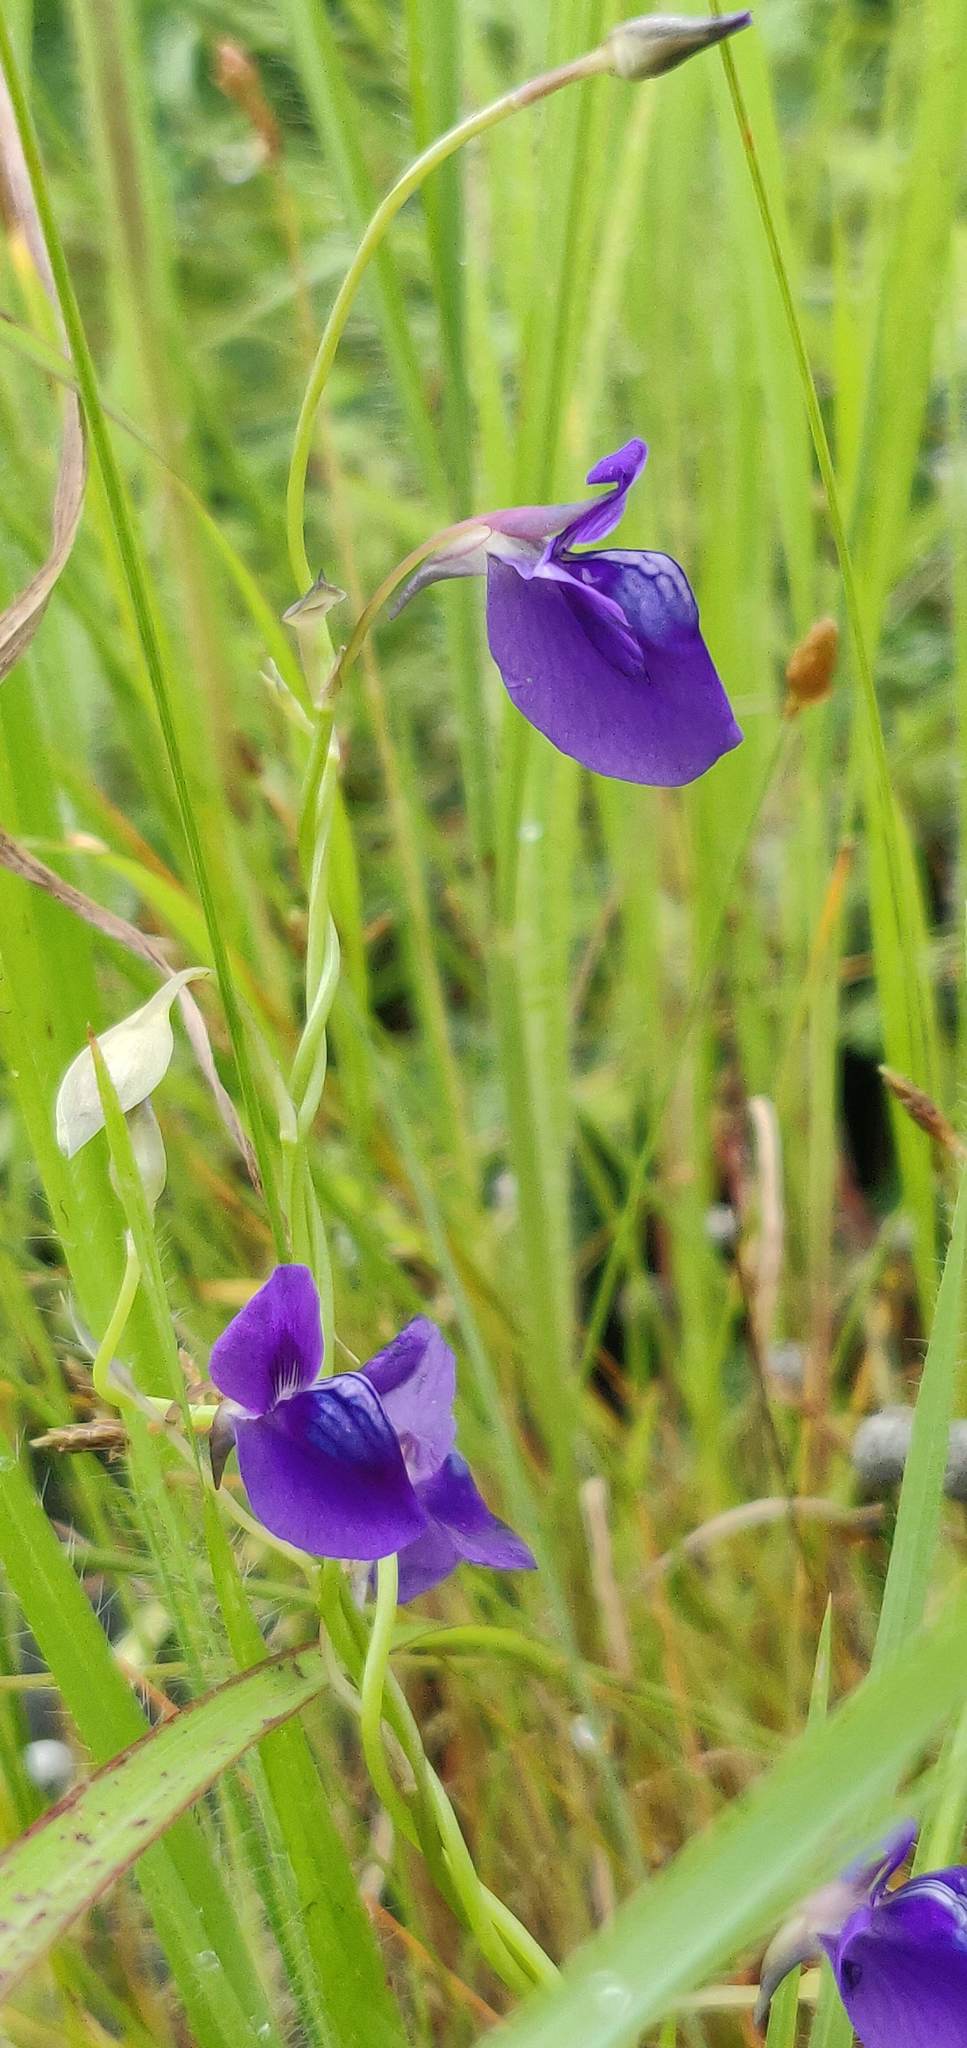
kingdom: Plantae
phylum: Tracheophyta
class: Magnoliopsida
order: Lamiales
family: Lentibulariaceae
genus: Utricularia
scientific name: Utricularia reticulata
